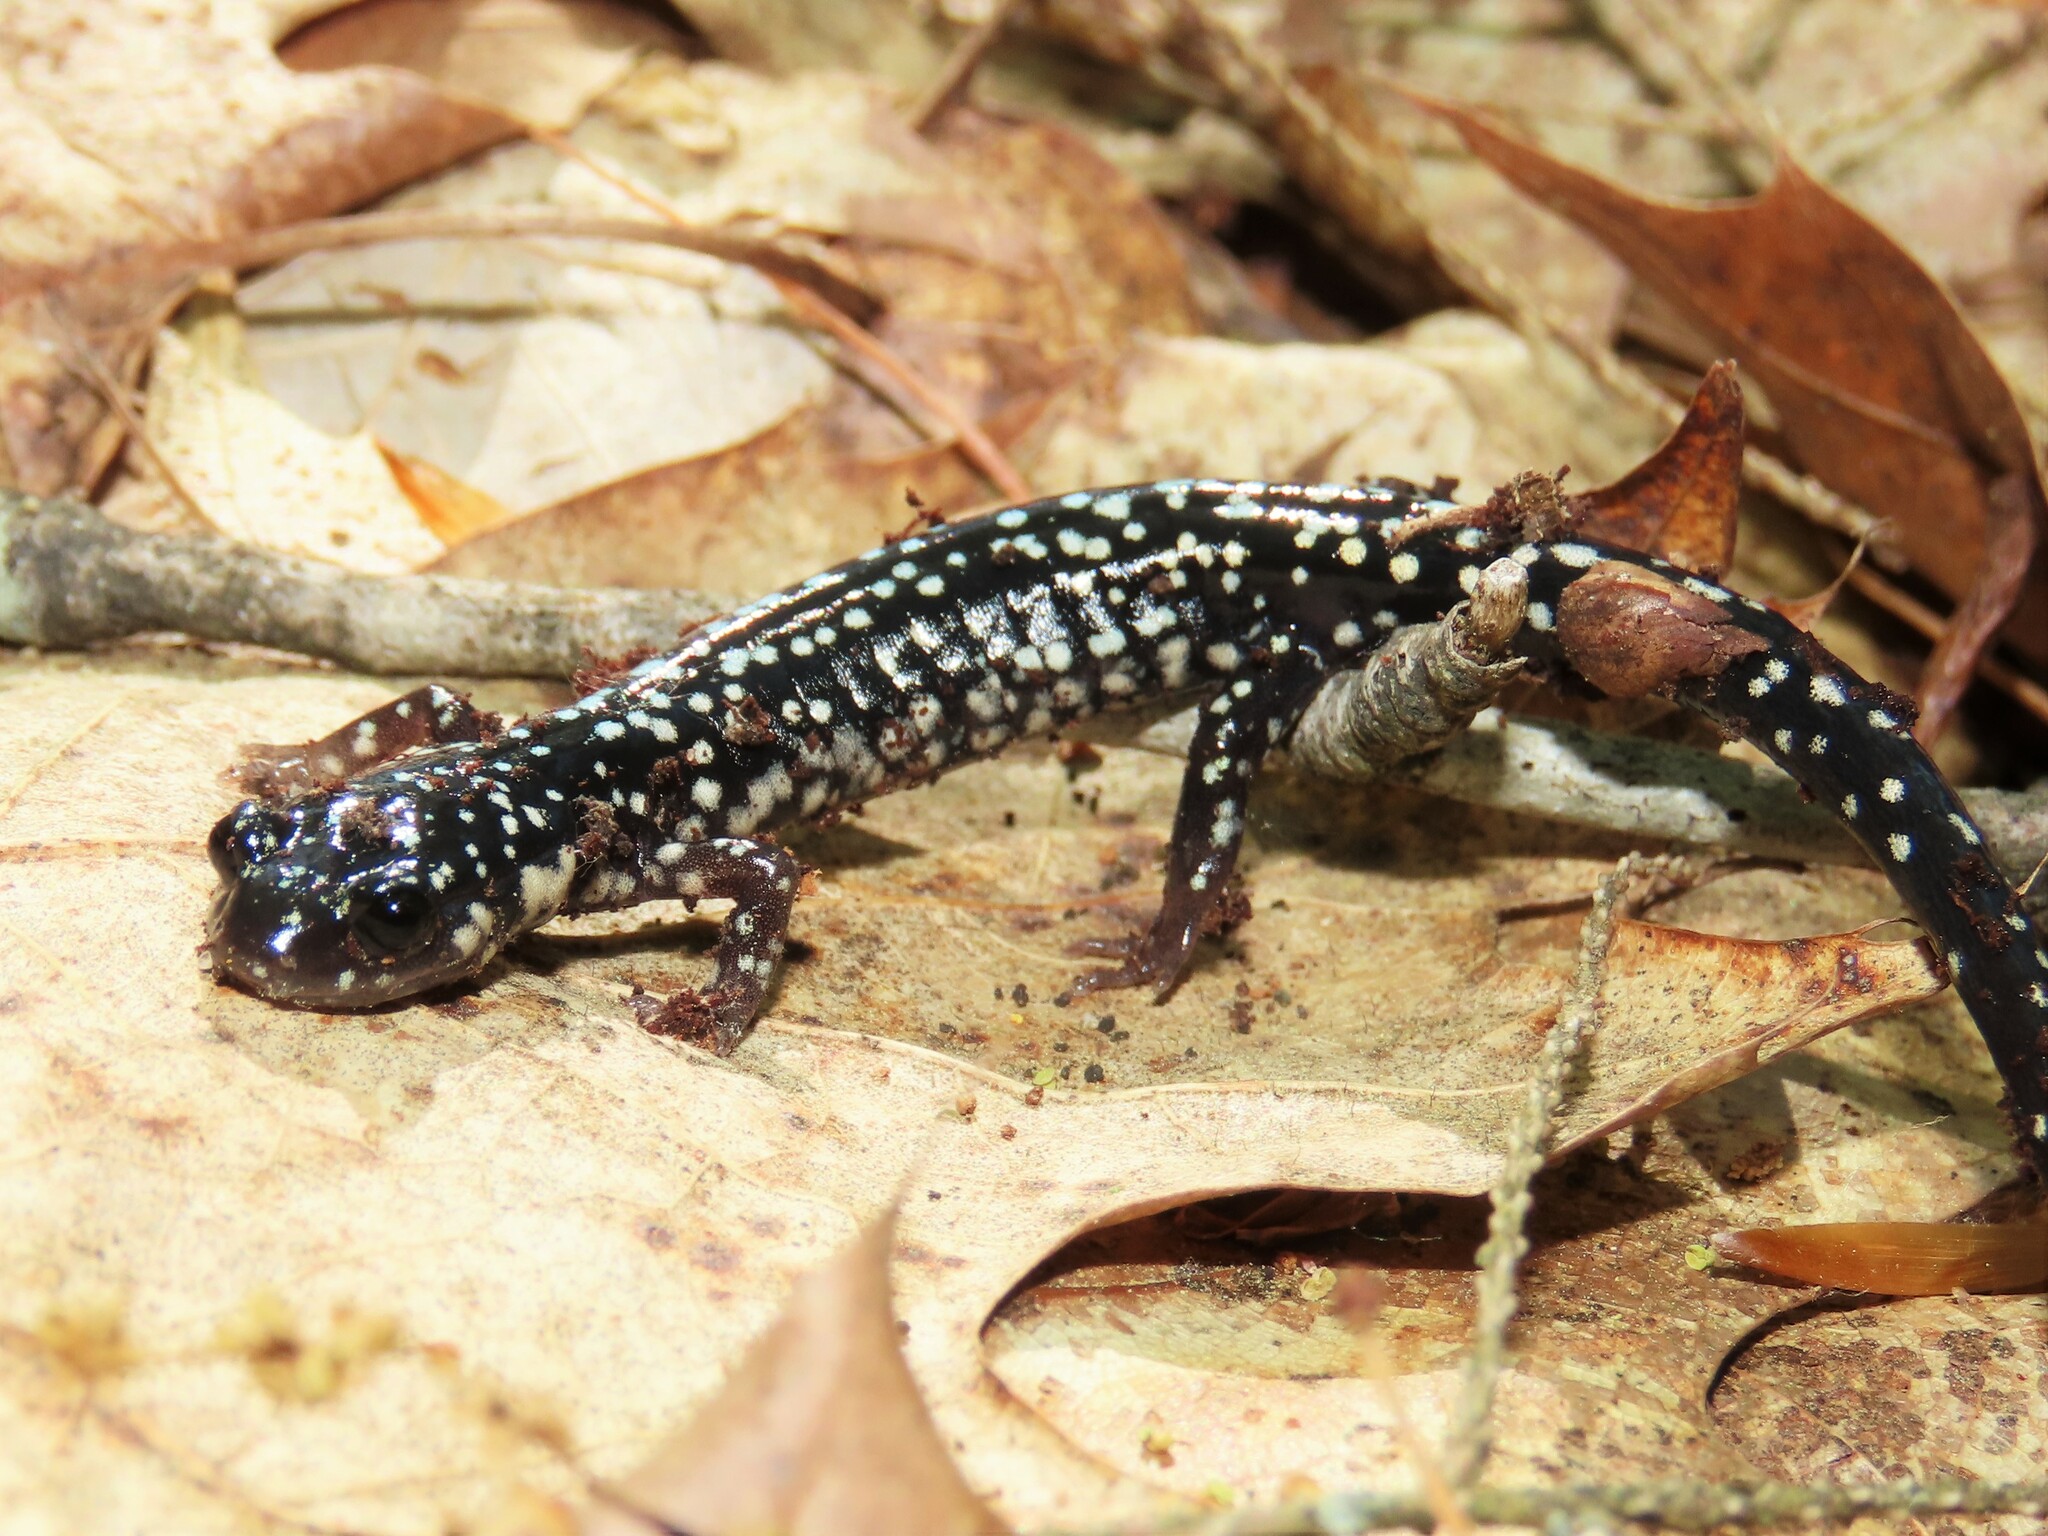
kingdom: Animalia
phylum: Chordata
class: Amphibia
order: Caudata
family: Plethodontidae
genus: Plethodon
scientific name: Plethodon glutinosus
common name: Northern slimy salamander
